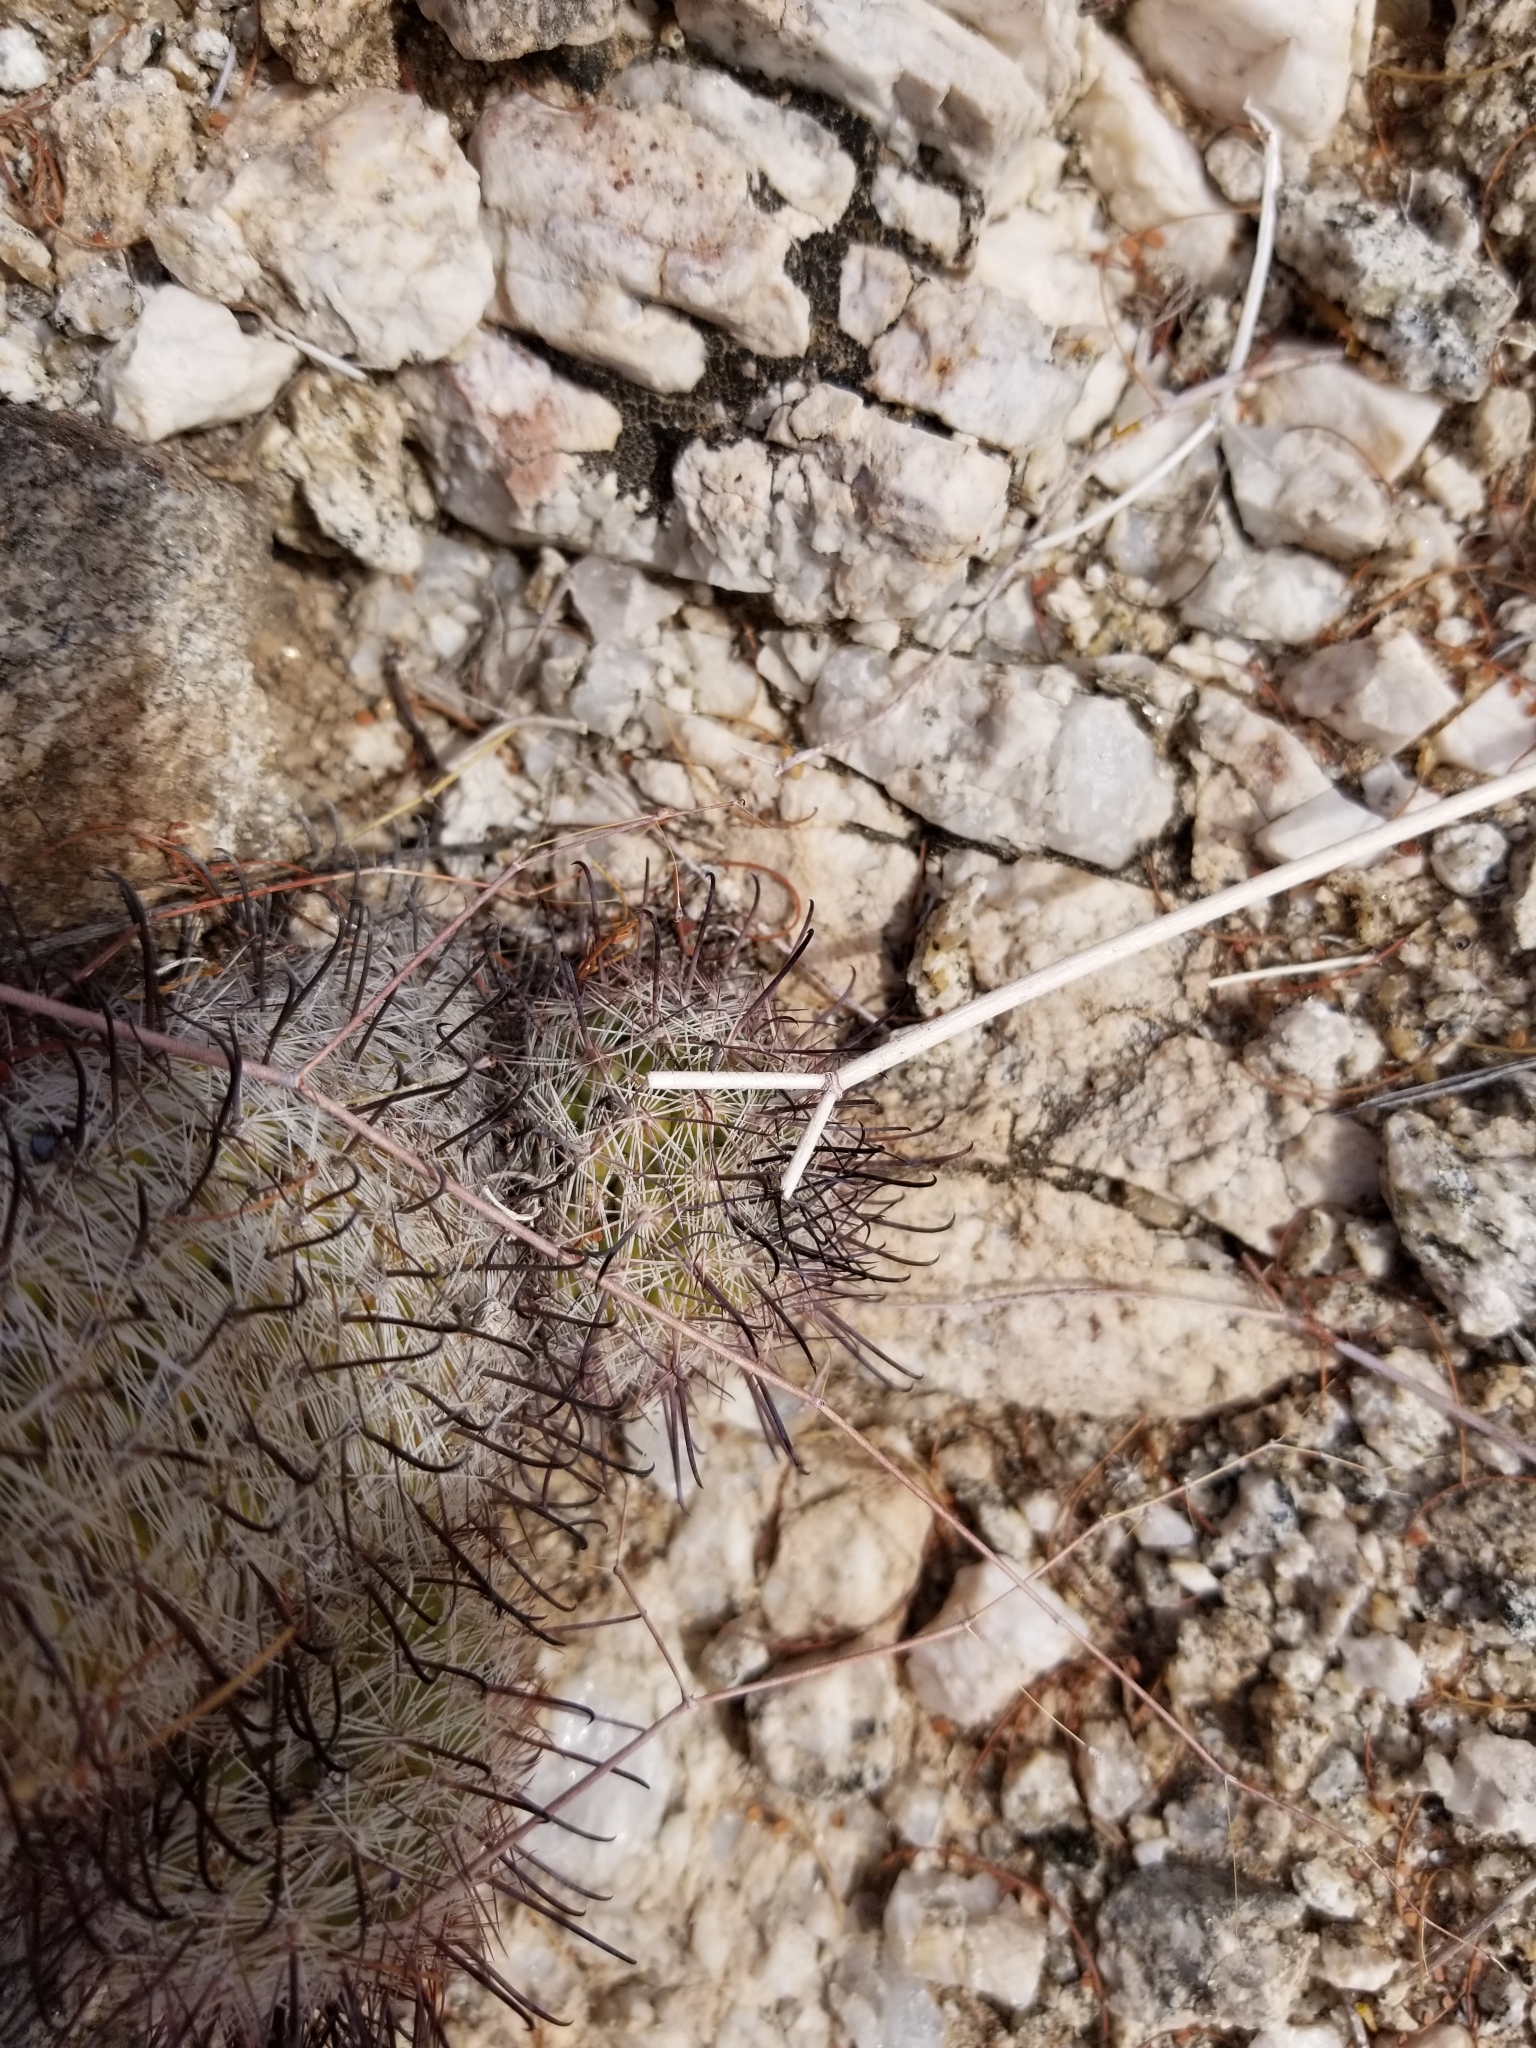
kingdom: Plantae
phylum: Tracheophyta
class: Magnoliopsida
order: Caryophyllales
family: Cactaceae
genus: Cochemiea
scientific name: Cochemiea tetrancistra
